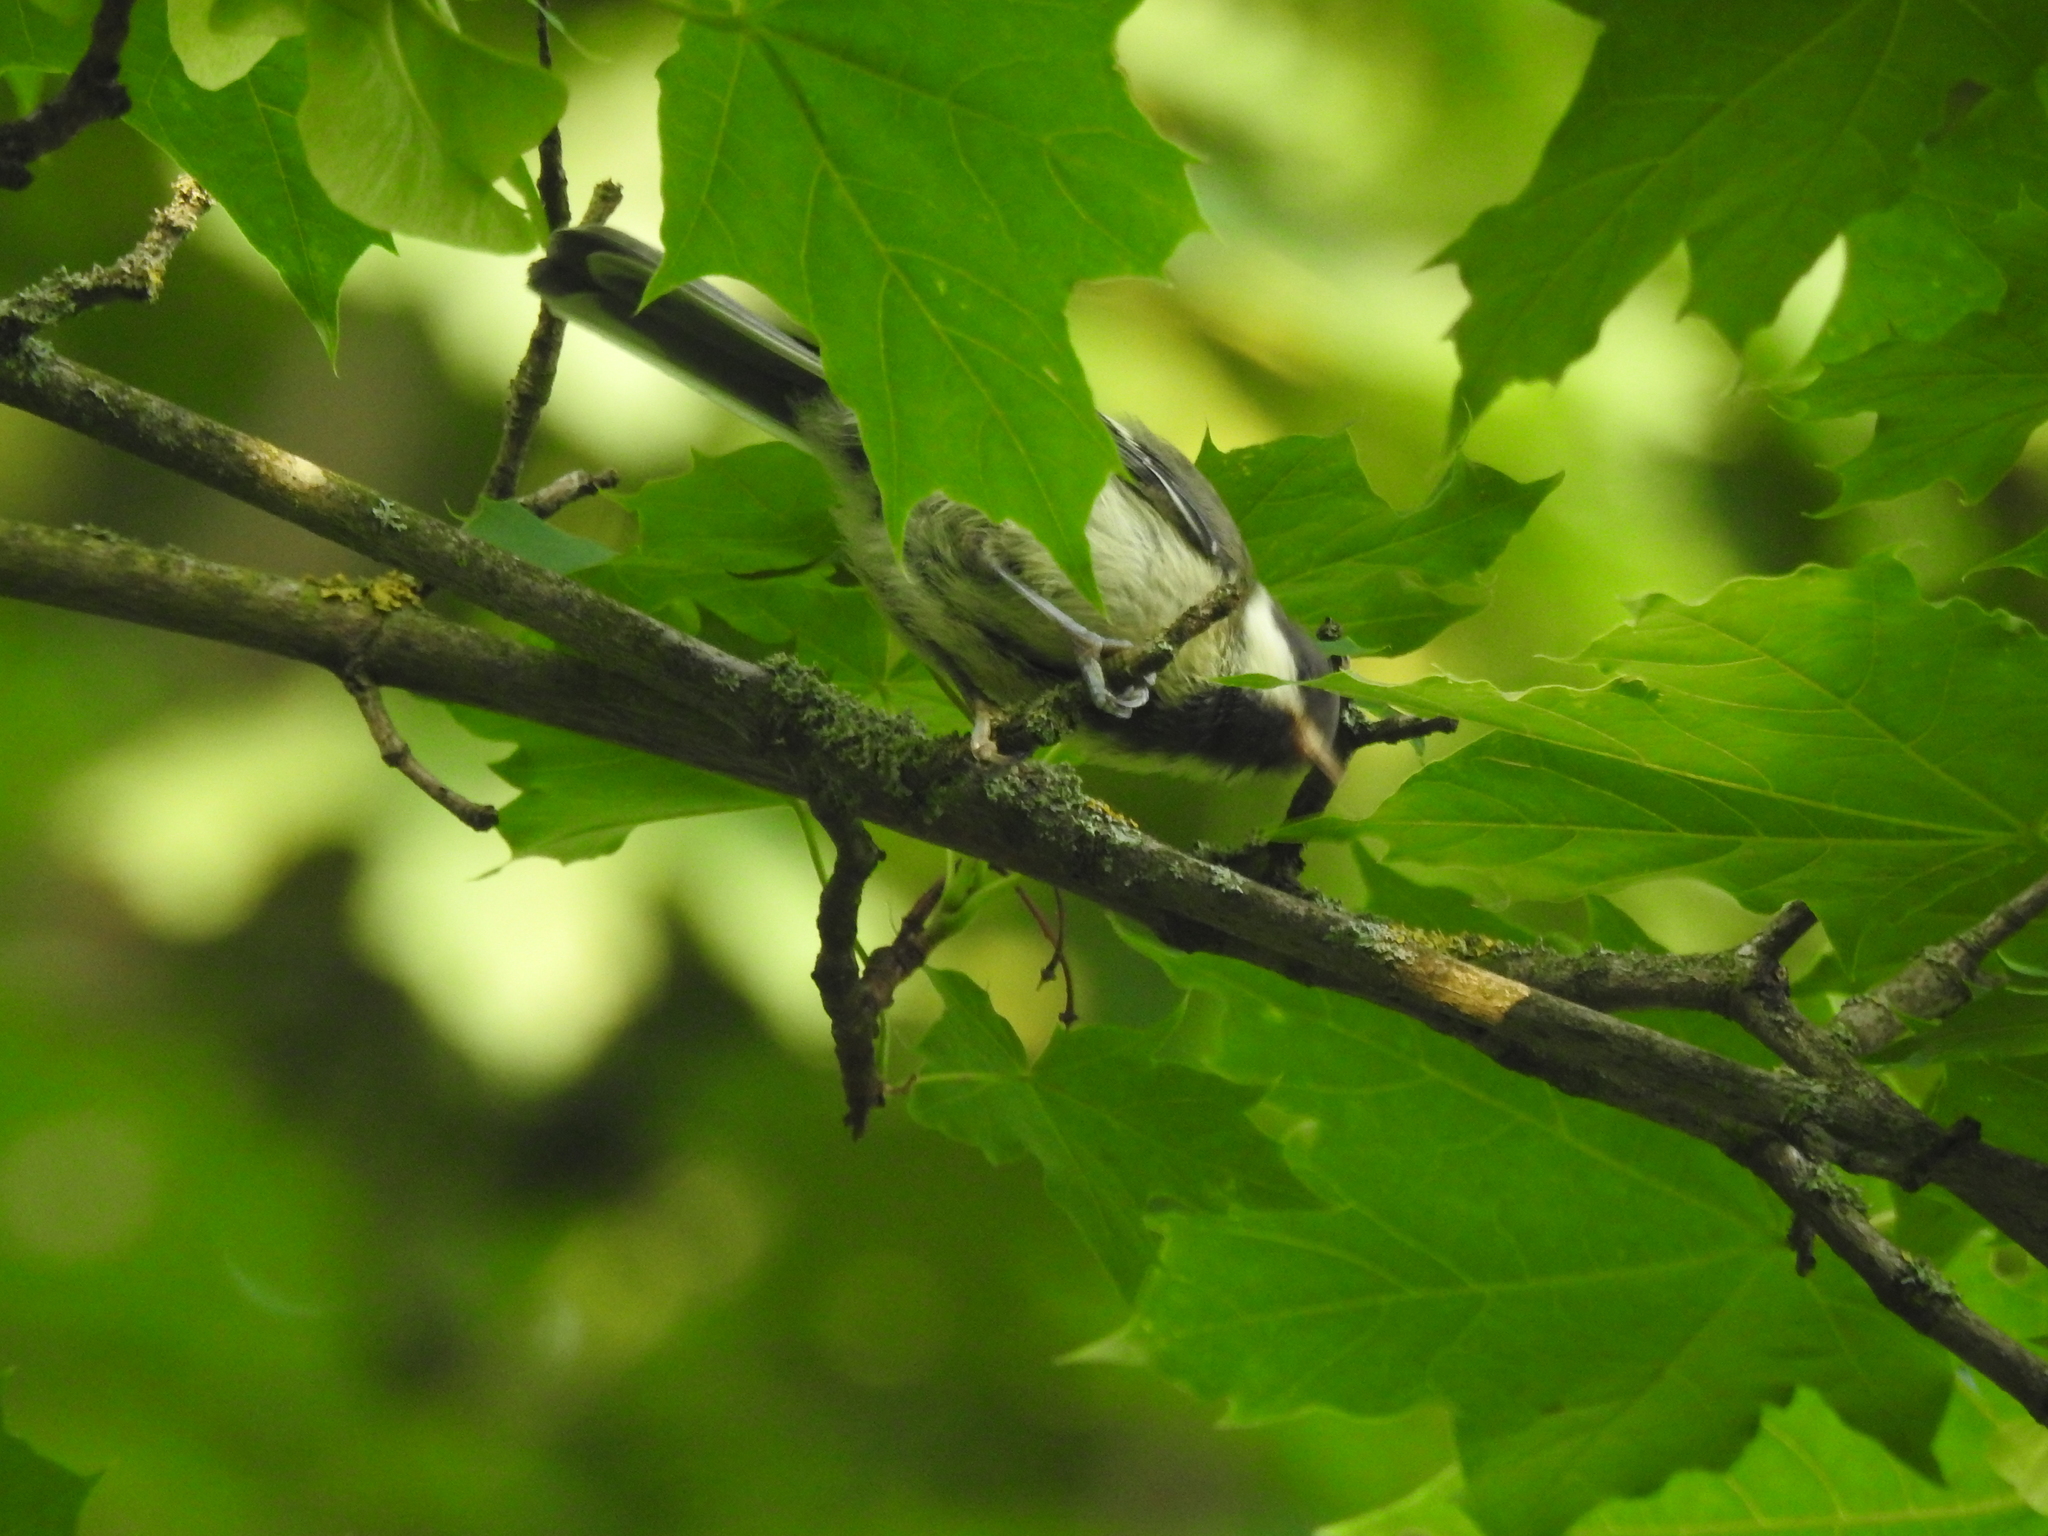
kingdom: Animalia
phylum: Chordata
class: Aves
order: Passeriformes
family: Paridae
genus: Parus
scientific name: Parus major
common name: Great tit
